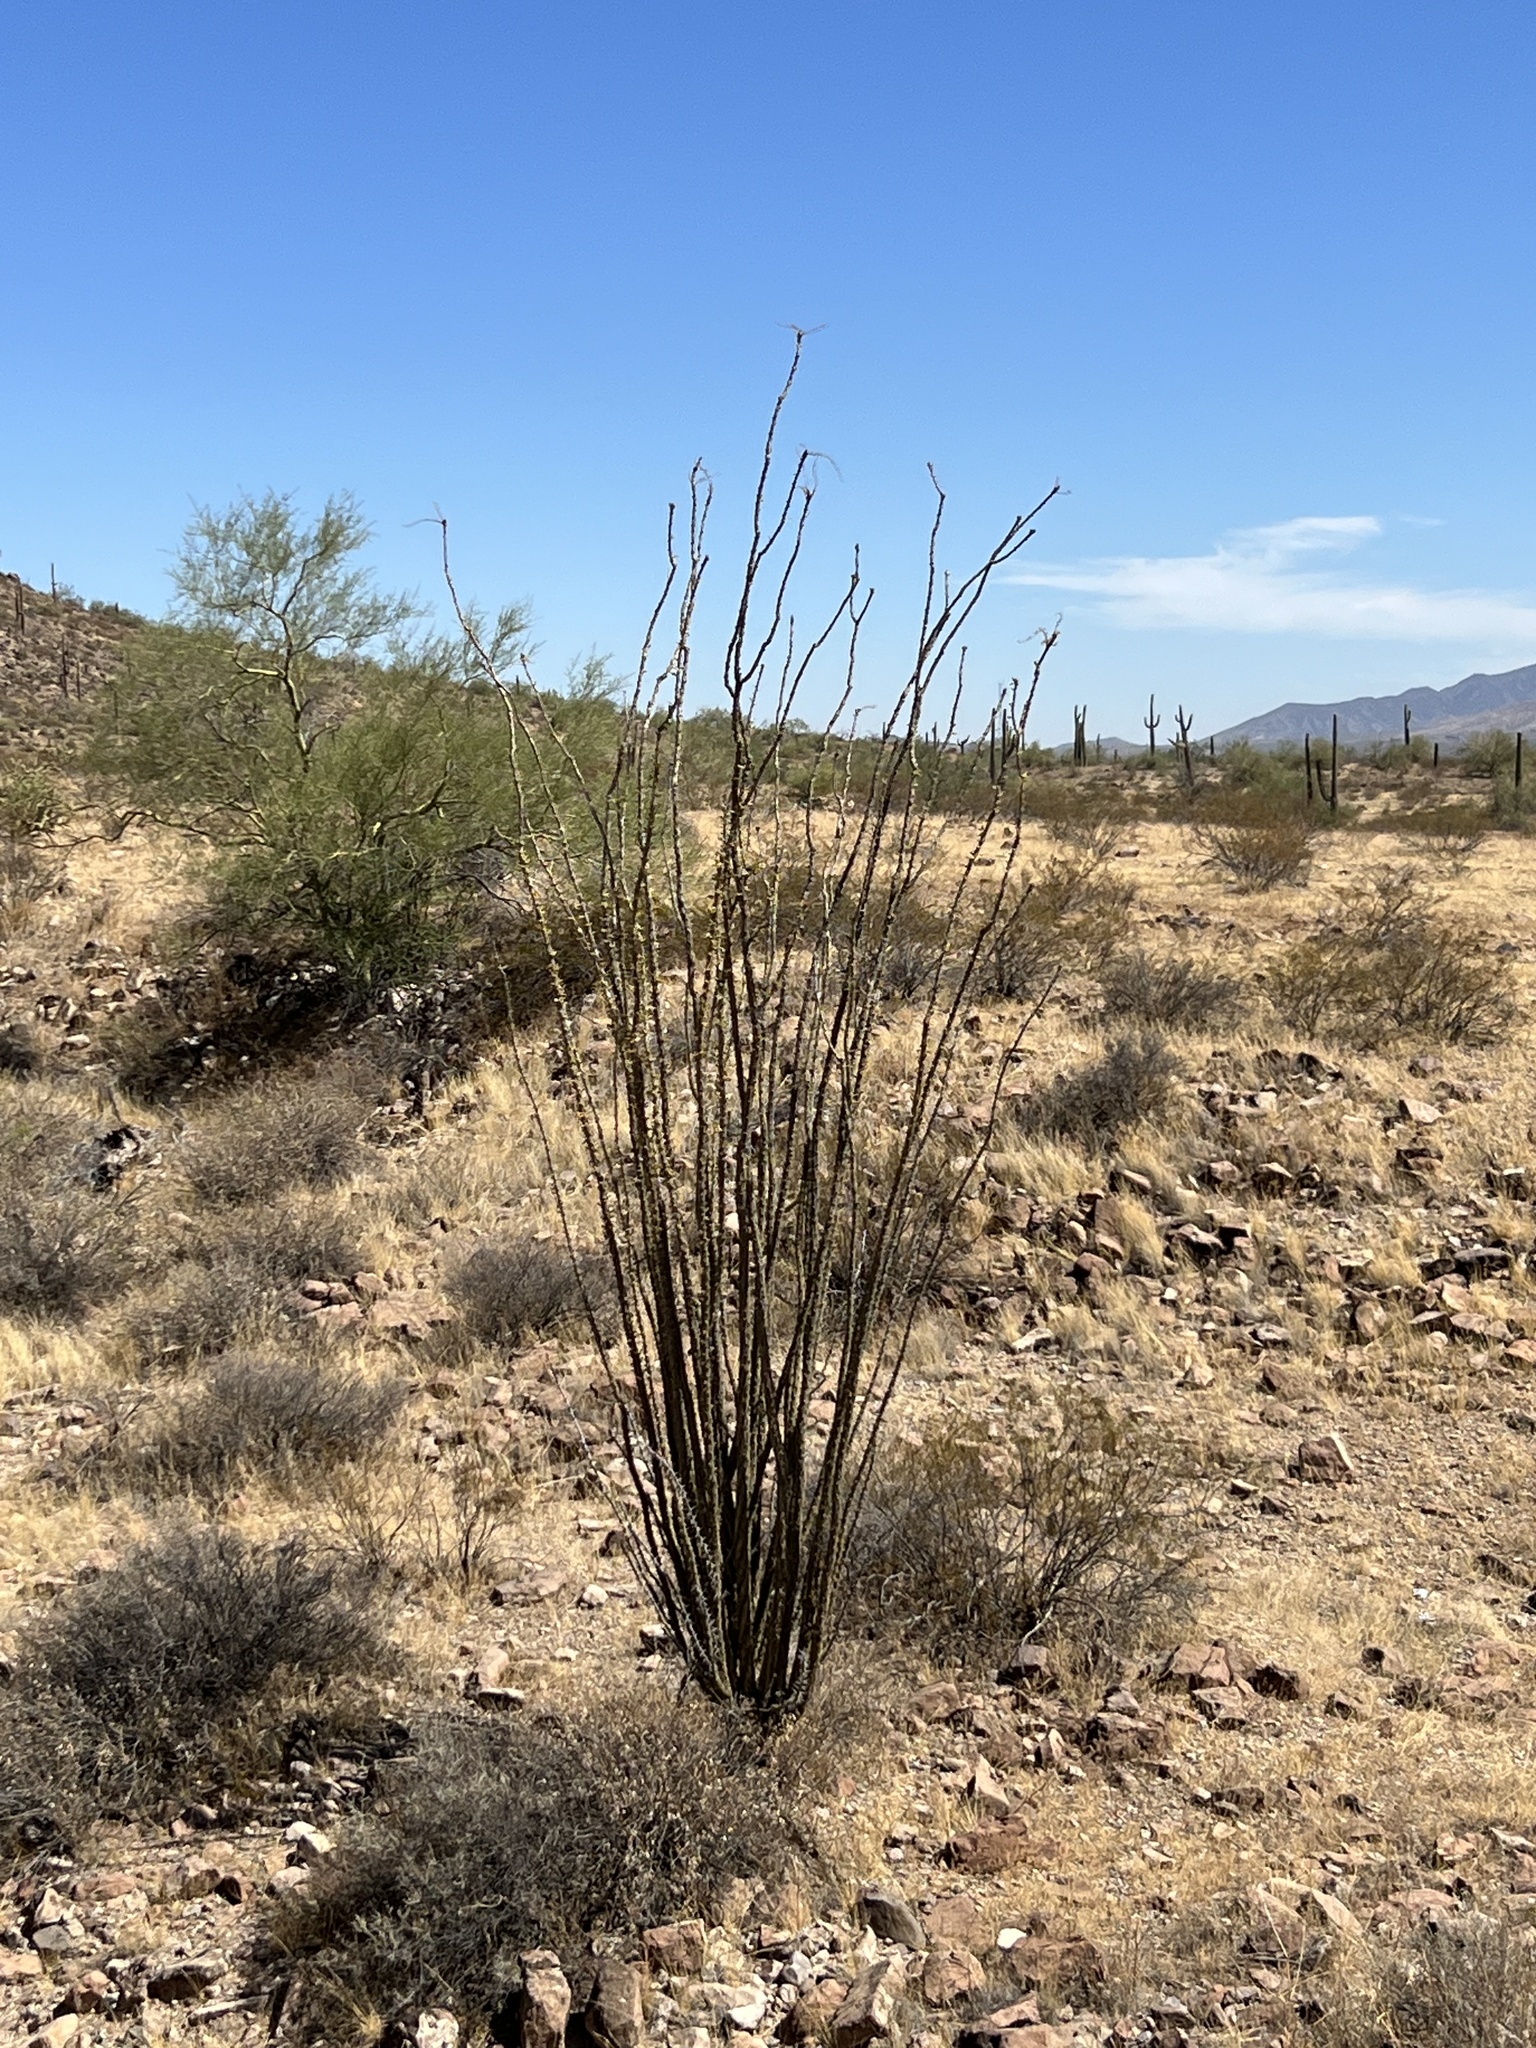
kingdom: Plantae
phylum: Tracheophyta
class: Magnoliopsida
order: Ericales
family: Fouquieriaceae
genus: Fouquieria
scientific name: Fouquieria splendens
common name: Vine-cactus
